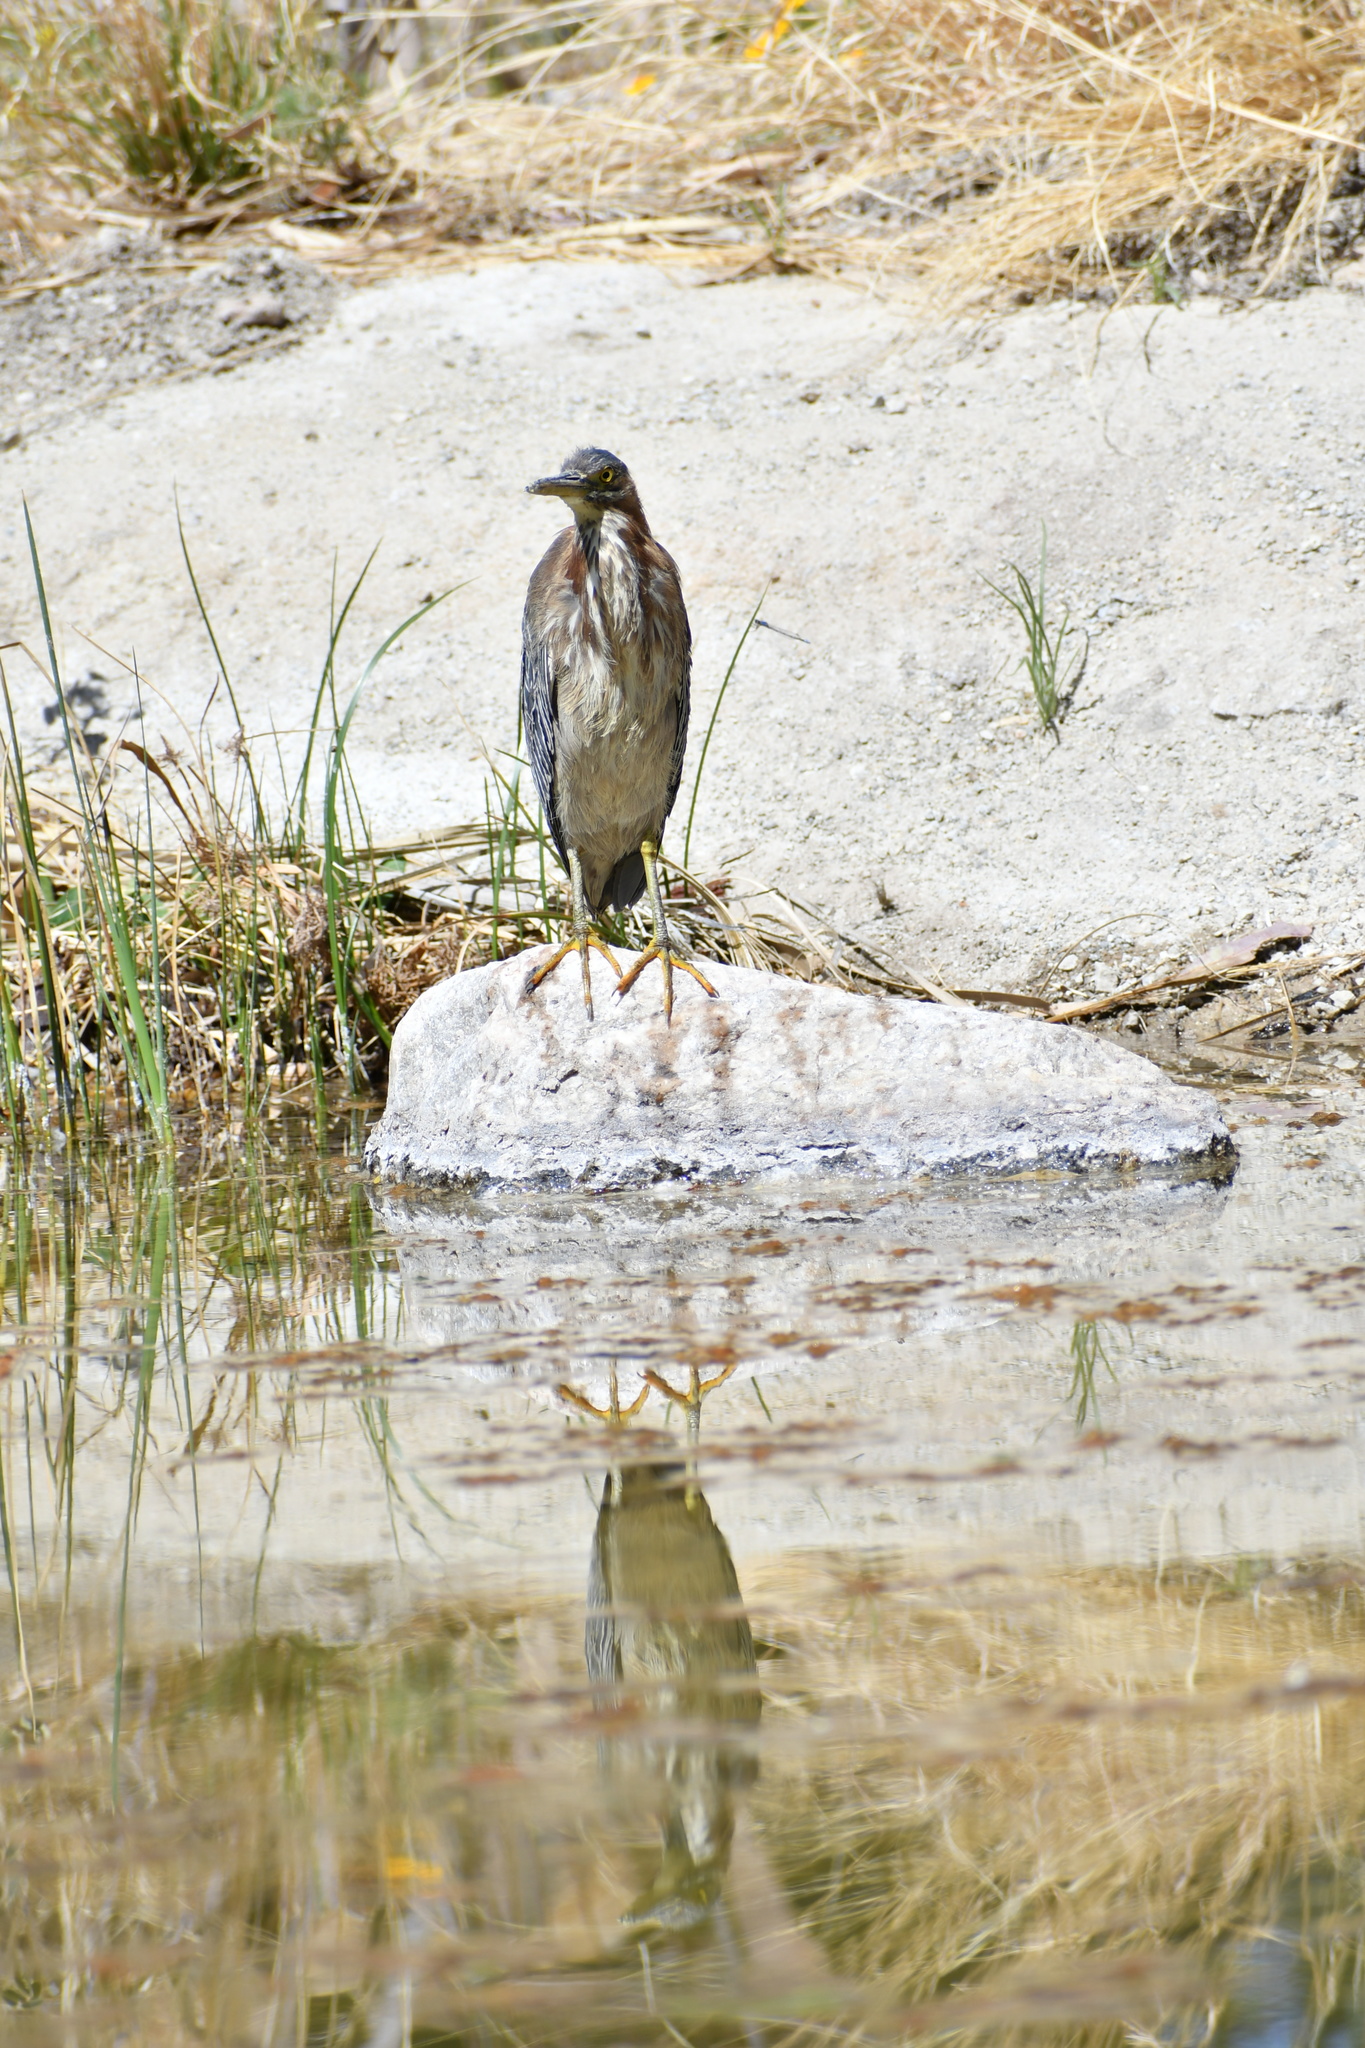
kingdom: Animalia
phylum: Chordata
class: Aves
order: Pelecaniformes
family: Ardeidae
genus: Butorides
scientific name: Butorides virescens
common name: Green heron
